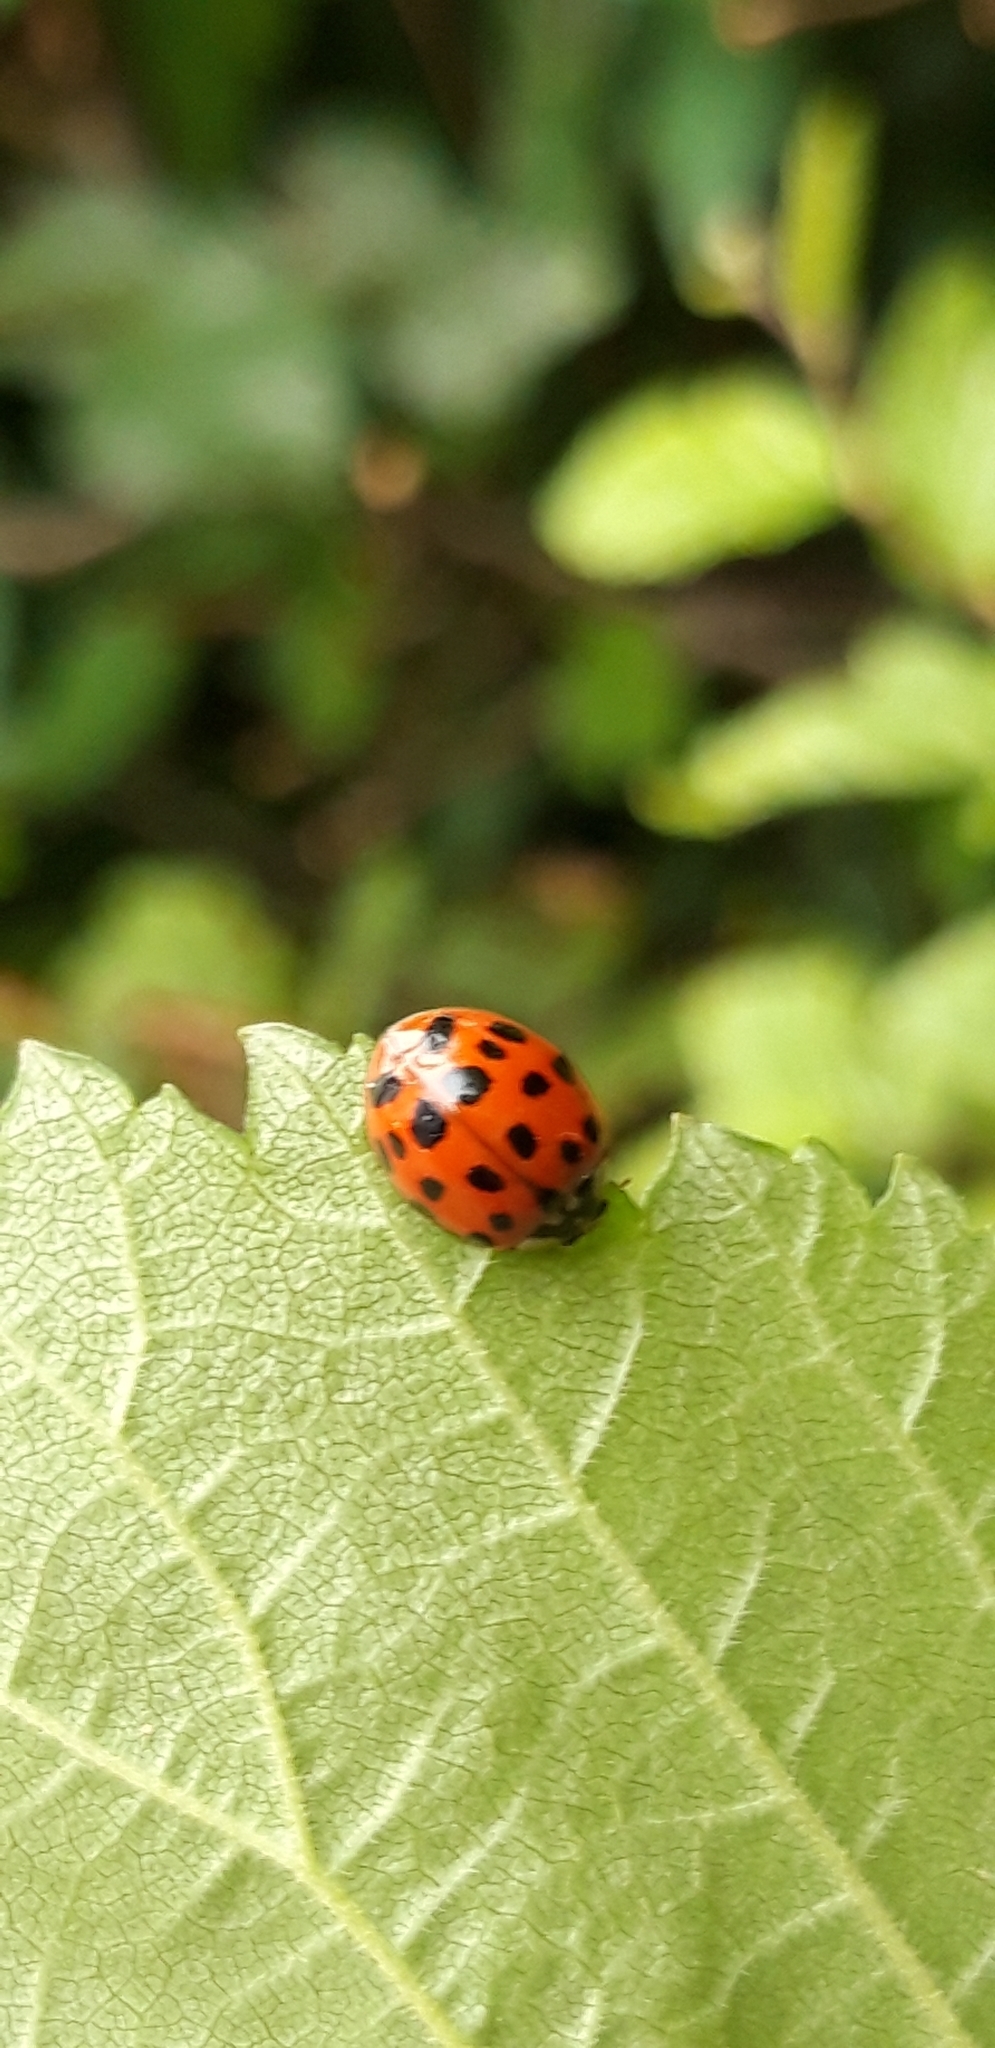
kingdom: Animalia
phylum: Arthropoda
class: Insecta
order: Coleoptera
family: Coccinellidae
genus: Harmonia
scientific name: Harmonia axyridis
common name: Harlequin ladybird
